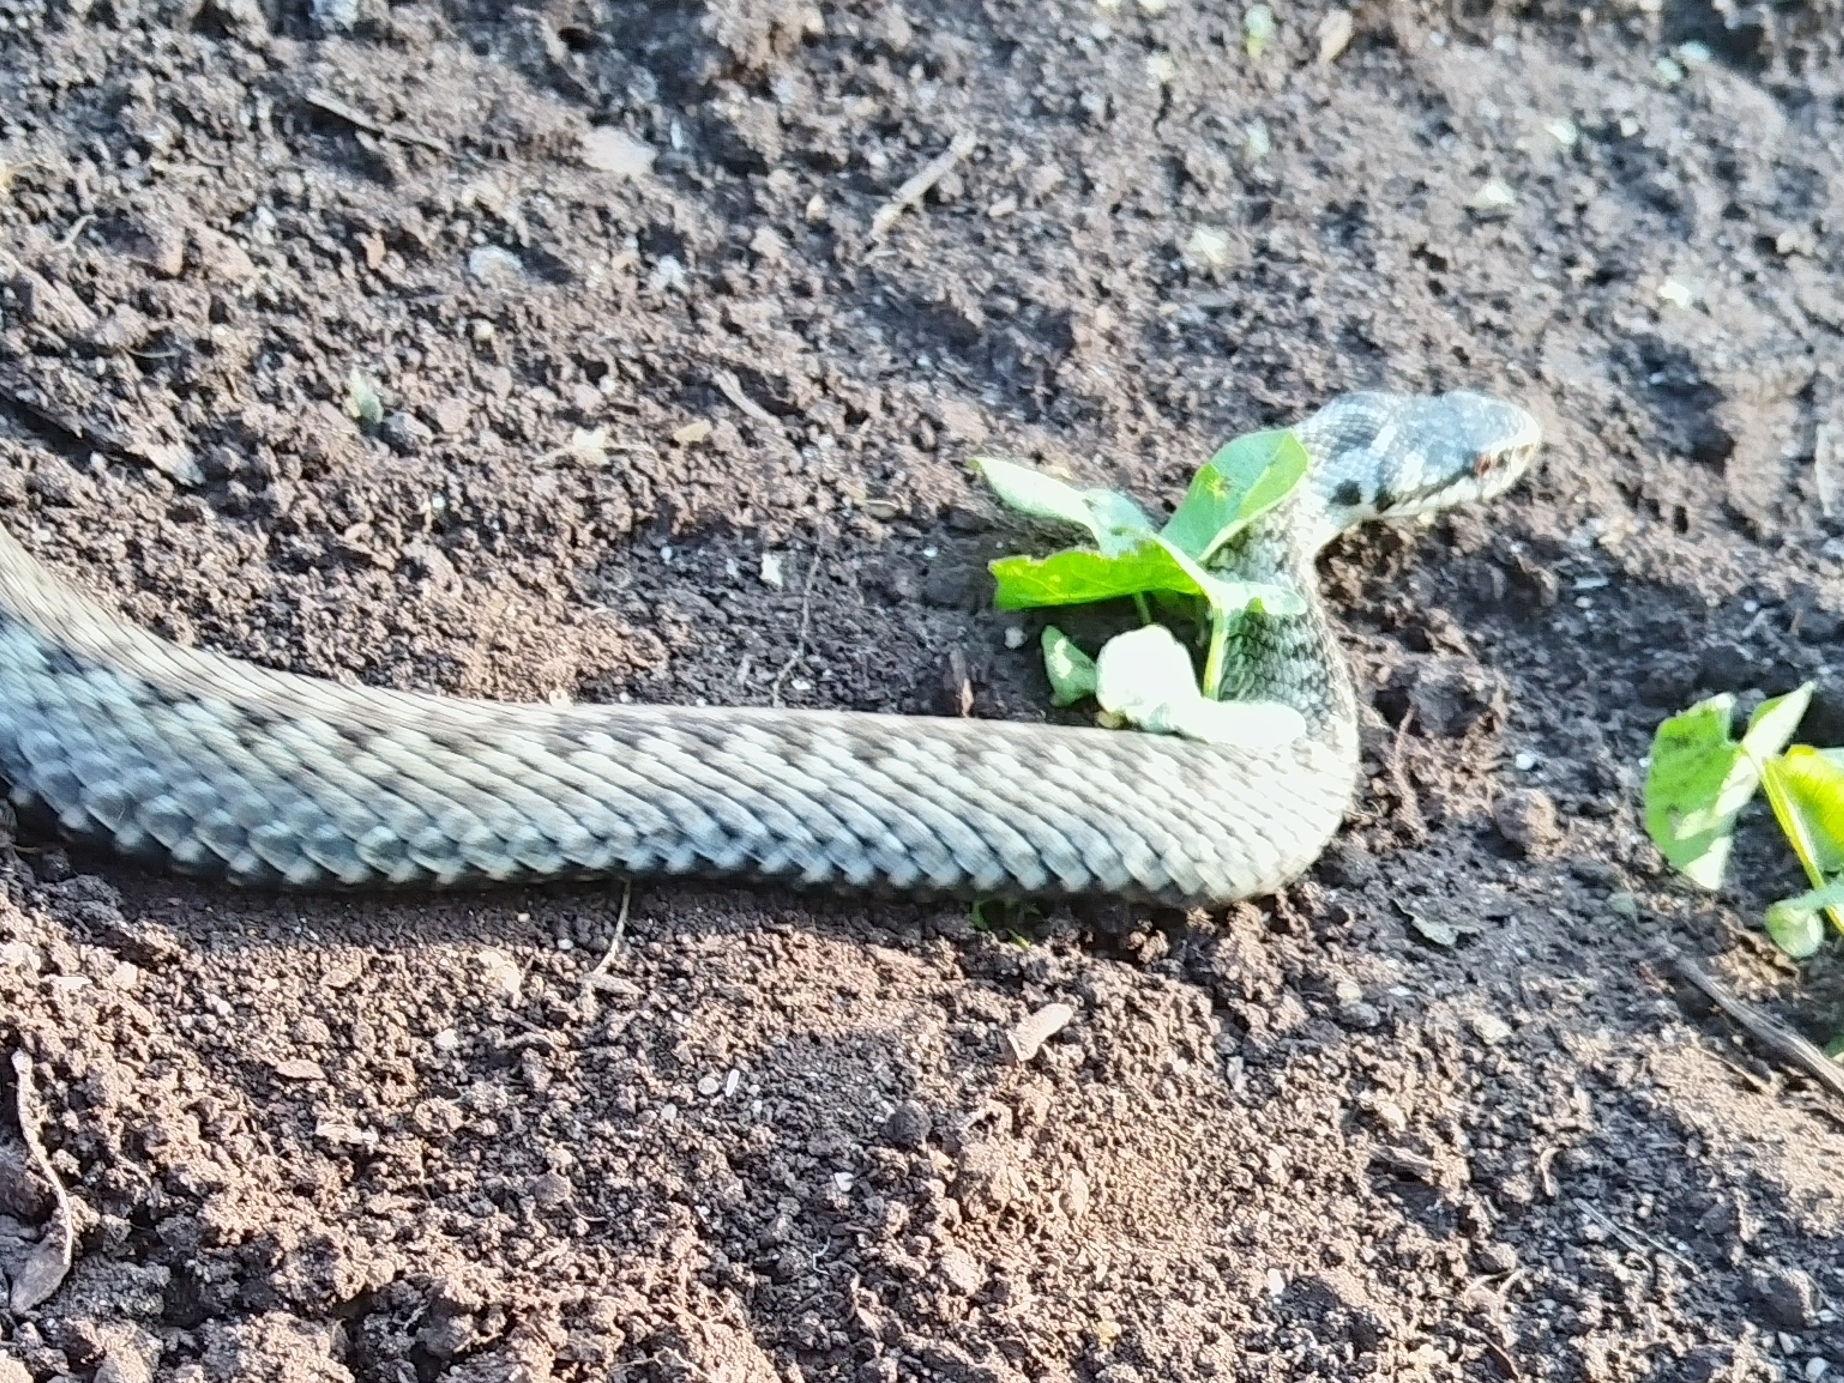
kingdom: Animalia
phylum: Chordata
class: Squamata
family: Viperidae
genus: Vipera
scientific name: Vipera berus
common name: Adder
